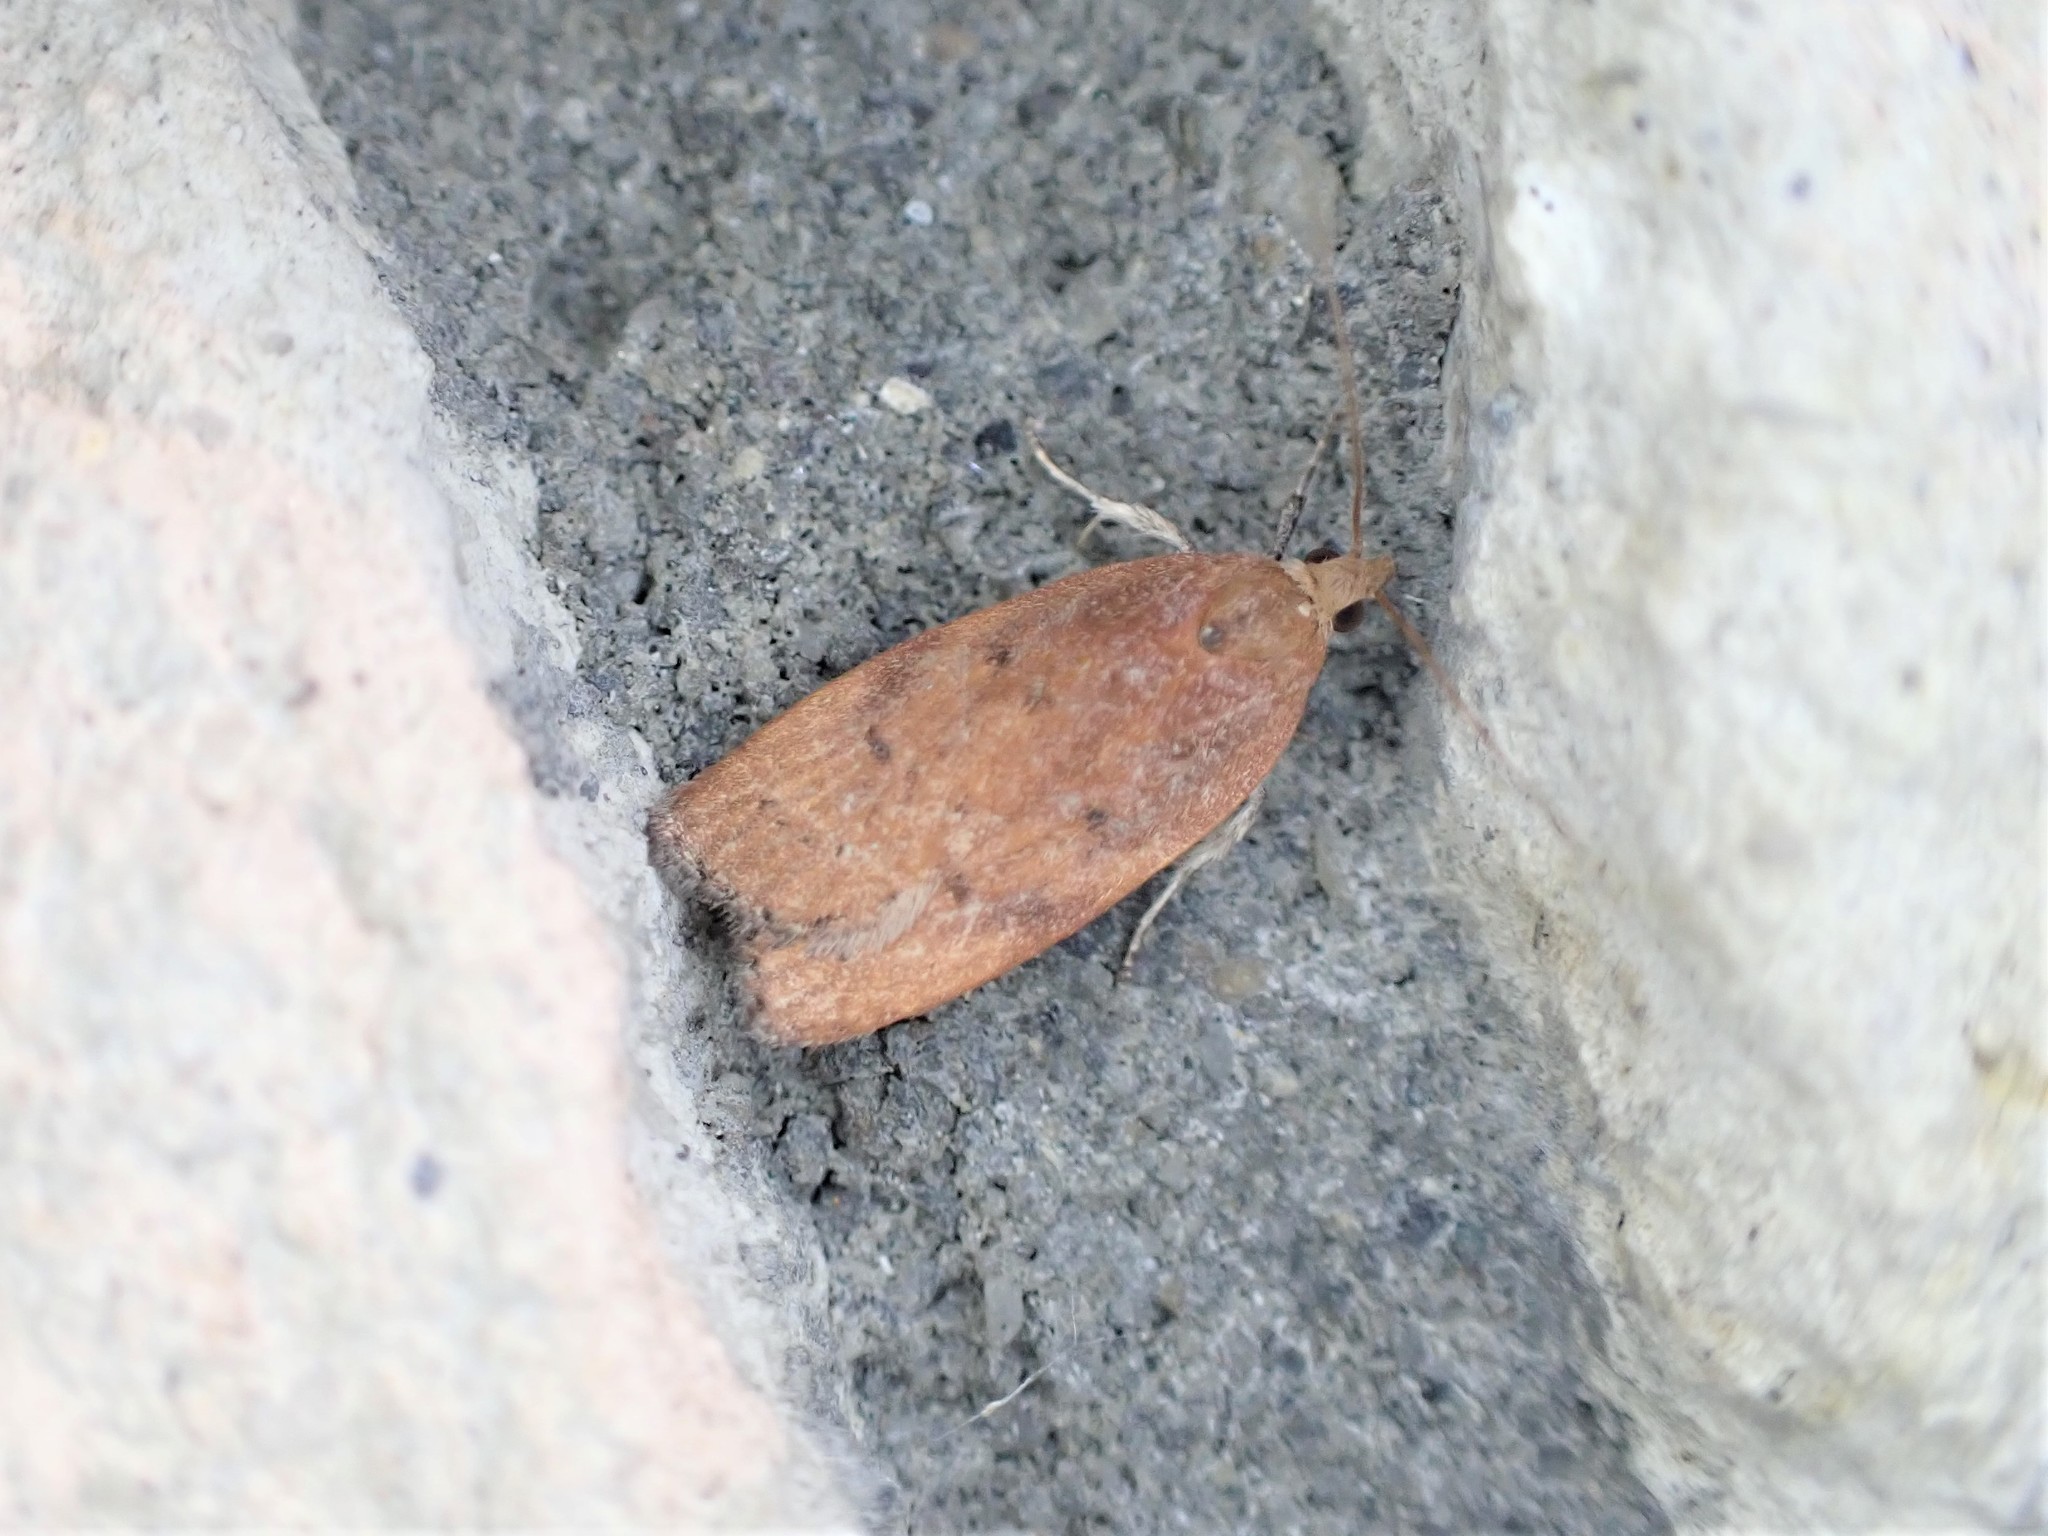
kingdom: Animalia
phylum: Arthropoda
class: Insecta
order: Lepidoptera
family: Depressariidae
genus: Phaeosaces
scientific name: Phaeosaces coarctatella
